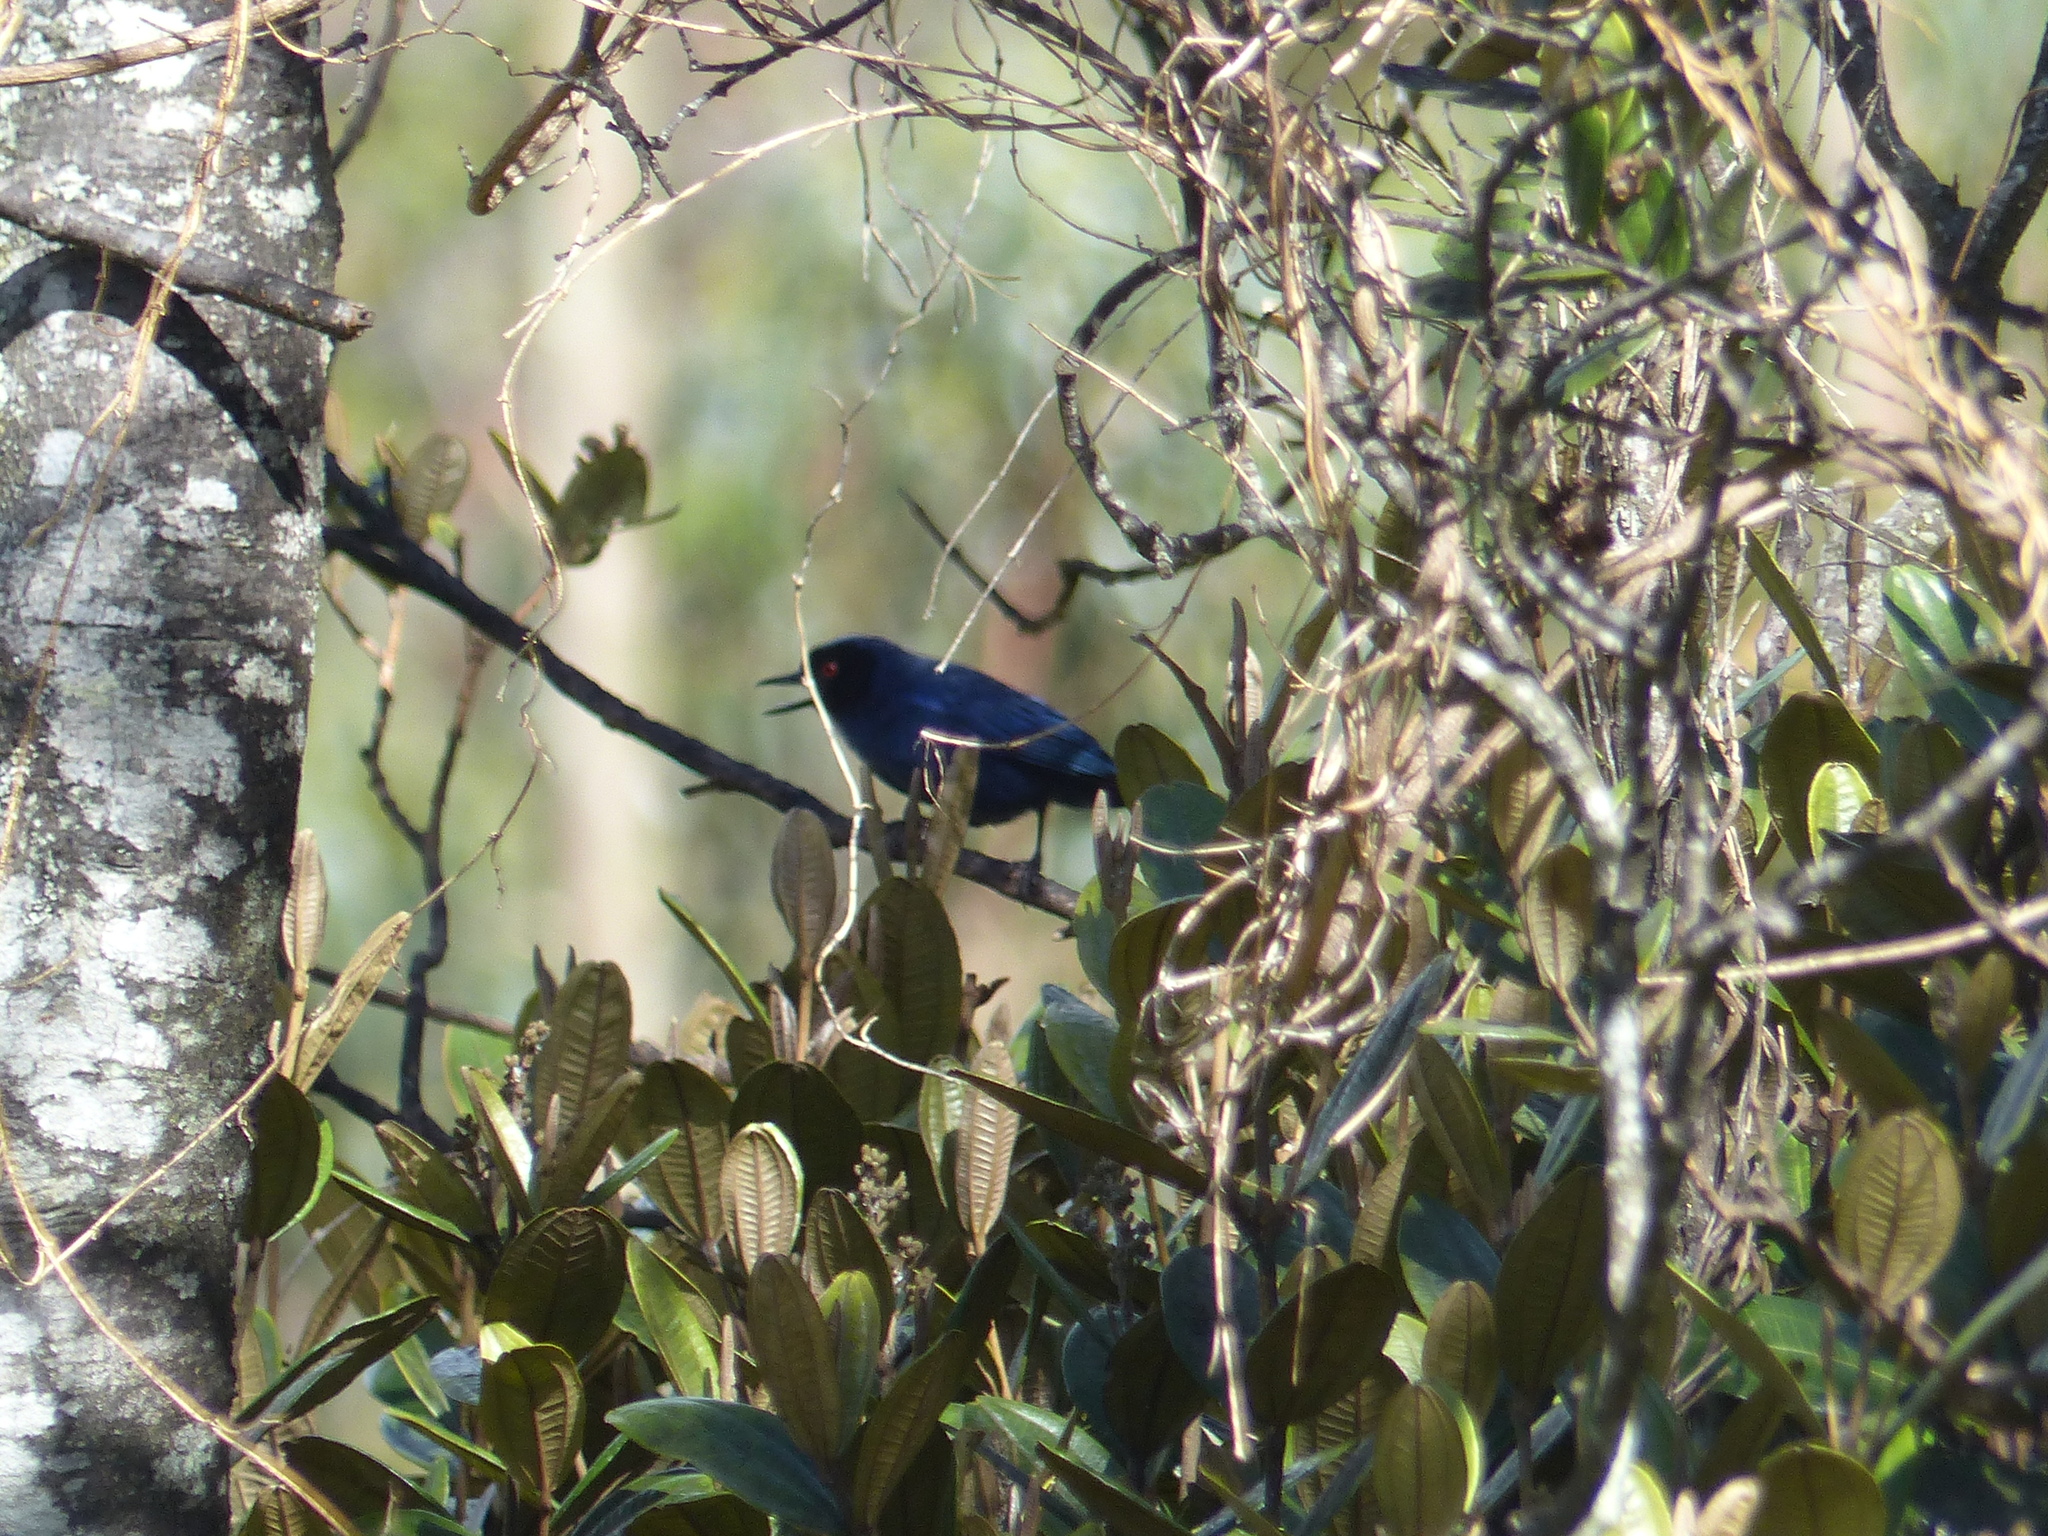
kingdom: Animalia
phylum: Chordata
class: Aves
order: Passeriformes
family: Thraupidae
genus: Diglossa
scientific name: Diglossa cyanea
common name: Masked flowerpiercer
